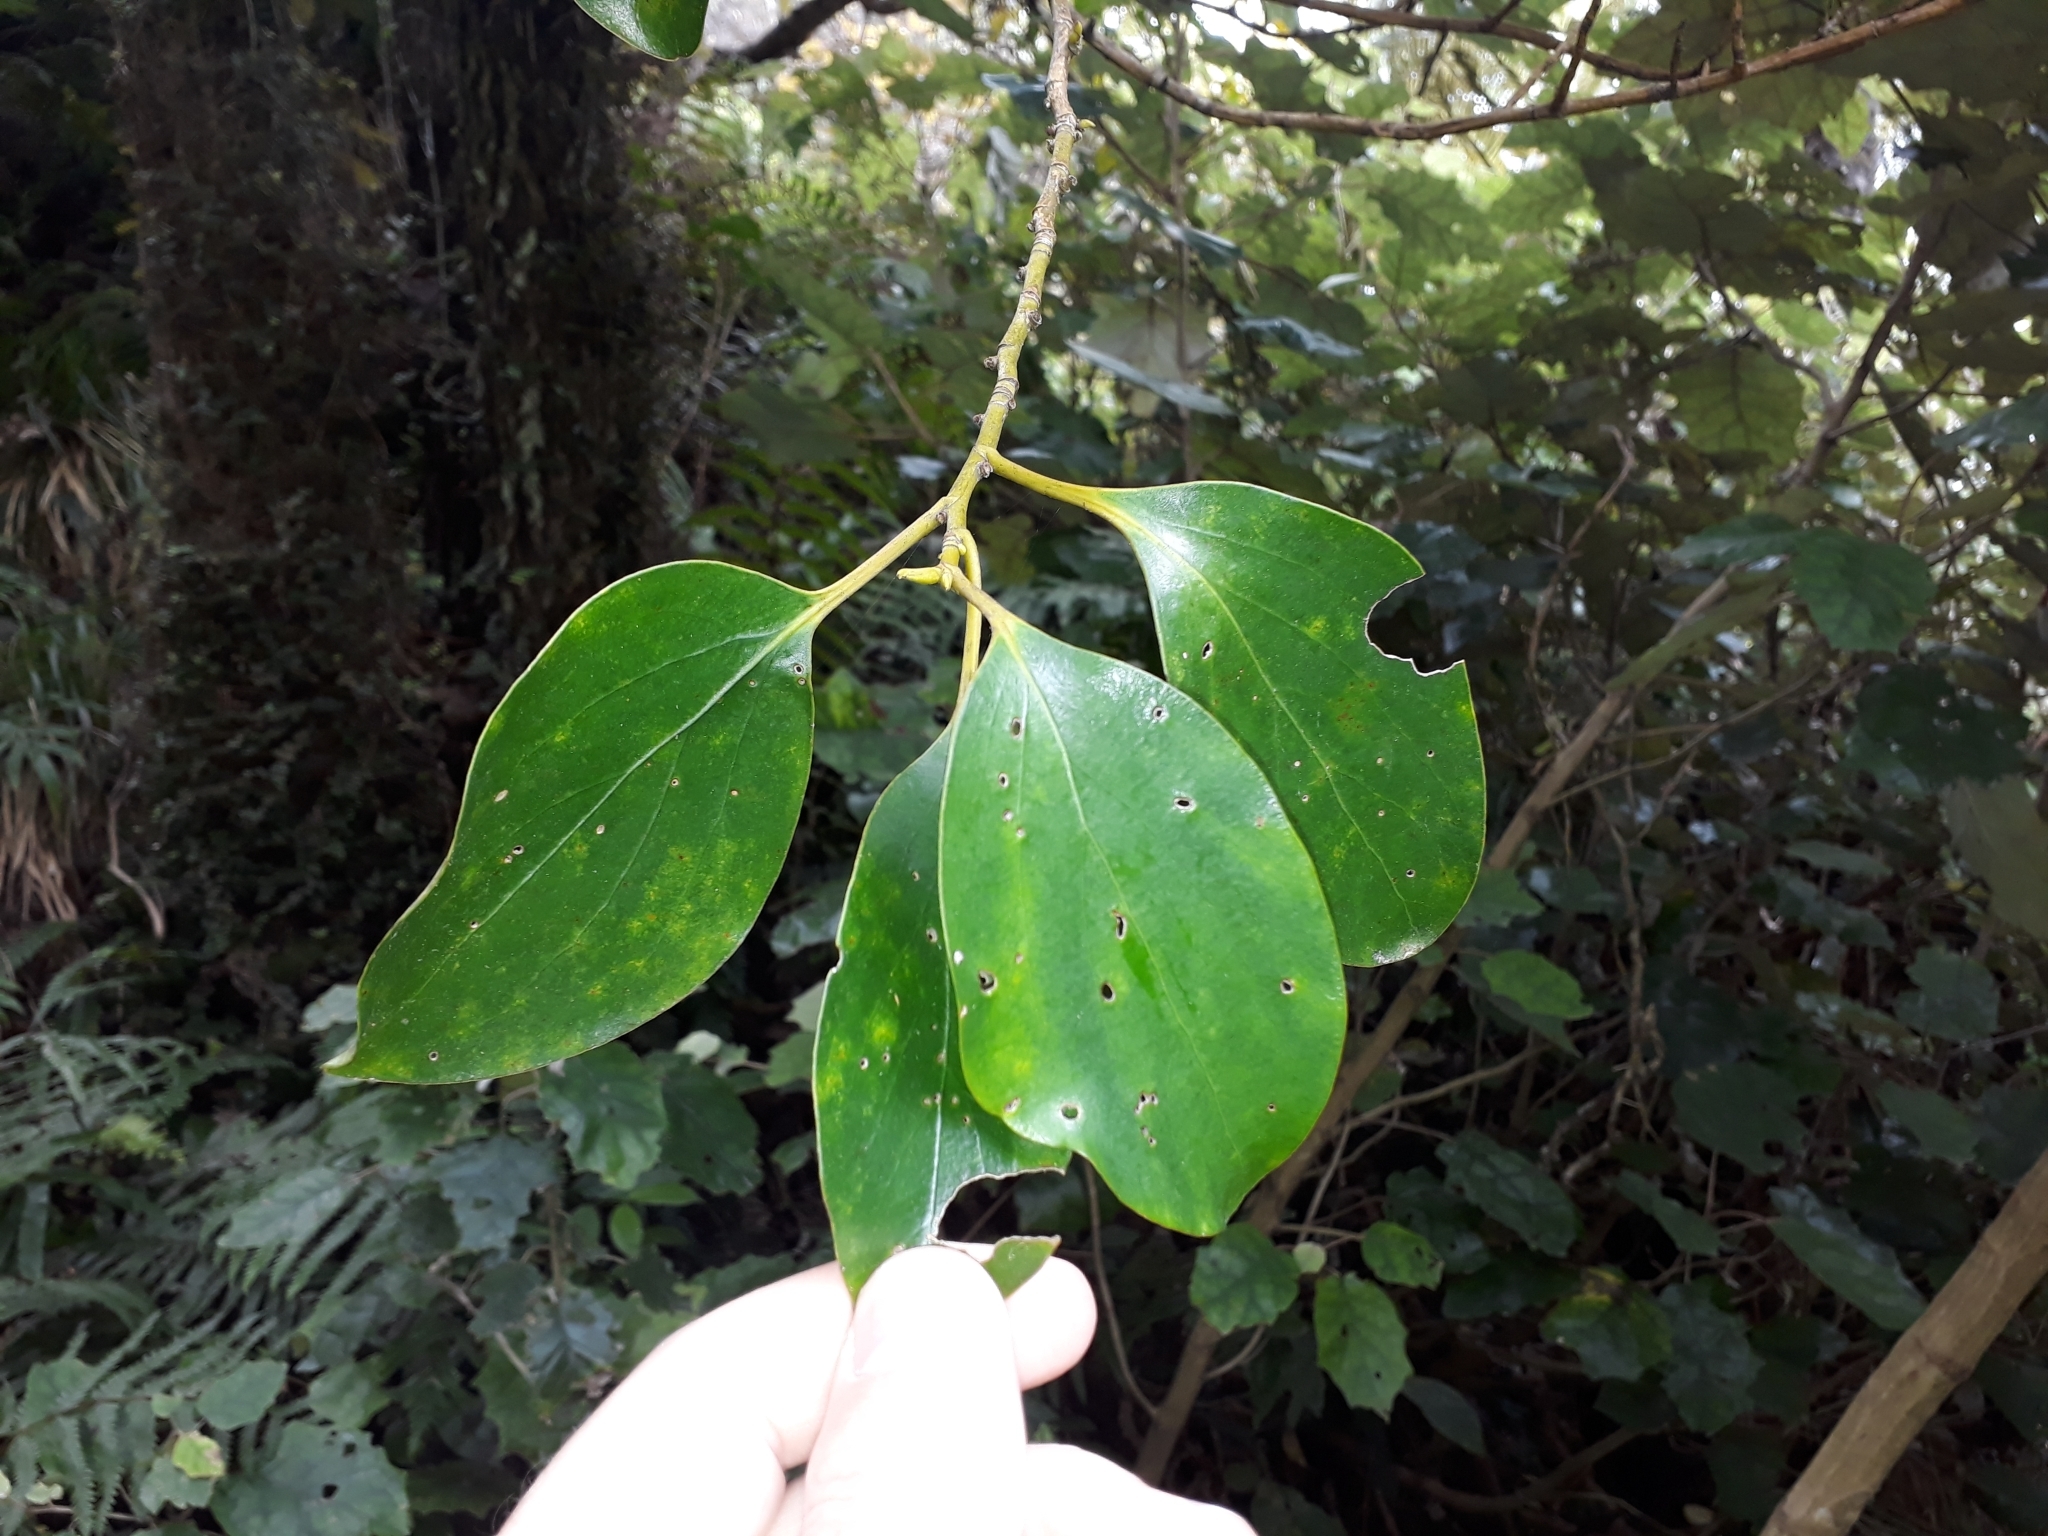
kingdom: Plantae
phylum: Tracheophyta
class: Magnoliopsida
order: Apiales
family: Griseliniaceae
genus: Griselinia
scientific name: Griselinia littoralis
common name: New zealand broadleaf
